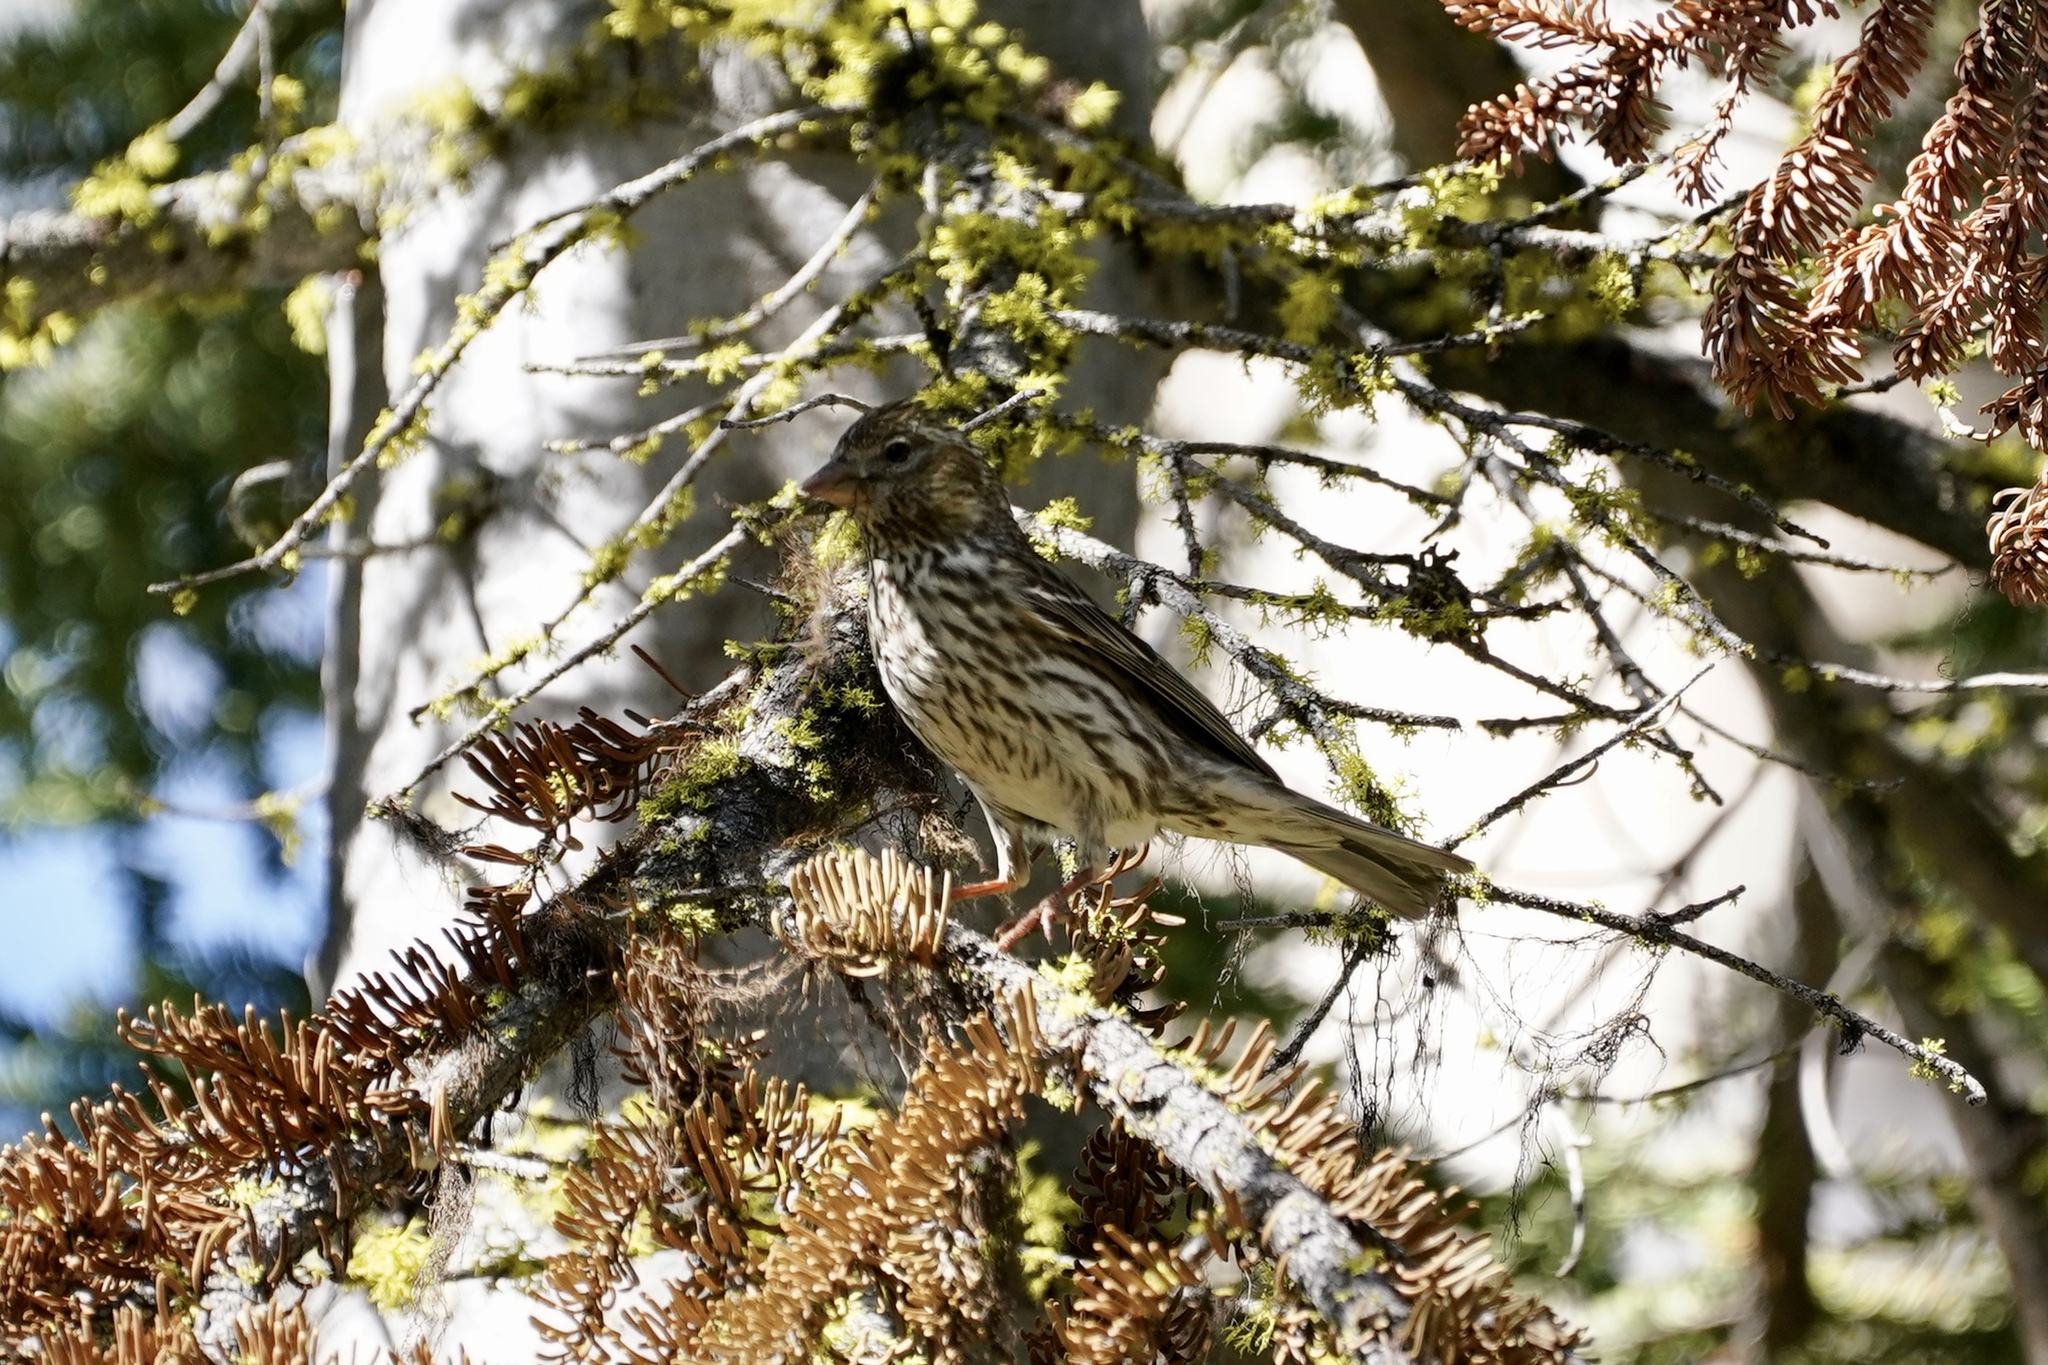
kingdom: Animalia
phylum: Chordata
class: Aves
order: Passeriformes
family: Fringillidae
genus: Haemorhous
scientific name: Haemorhous cassinii
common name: Cassin's finch
